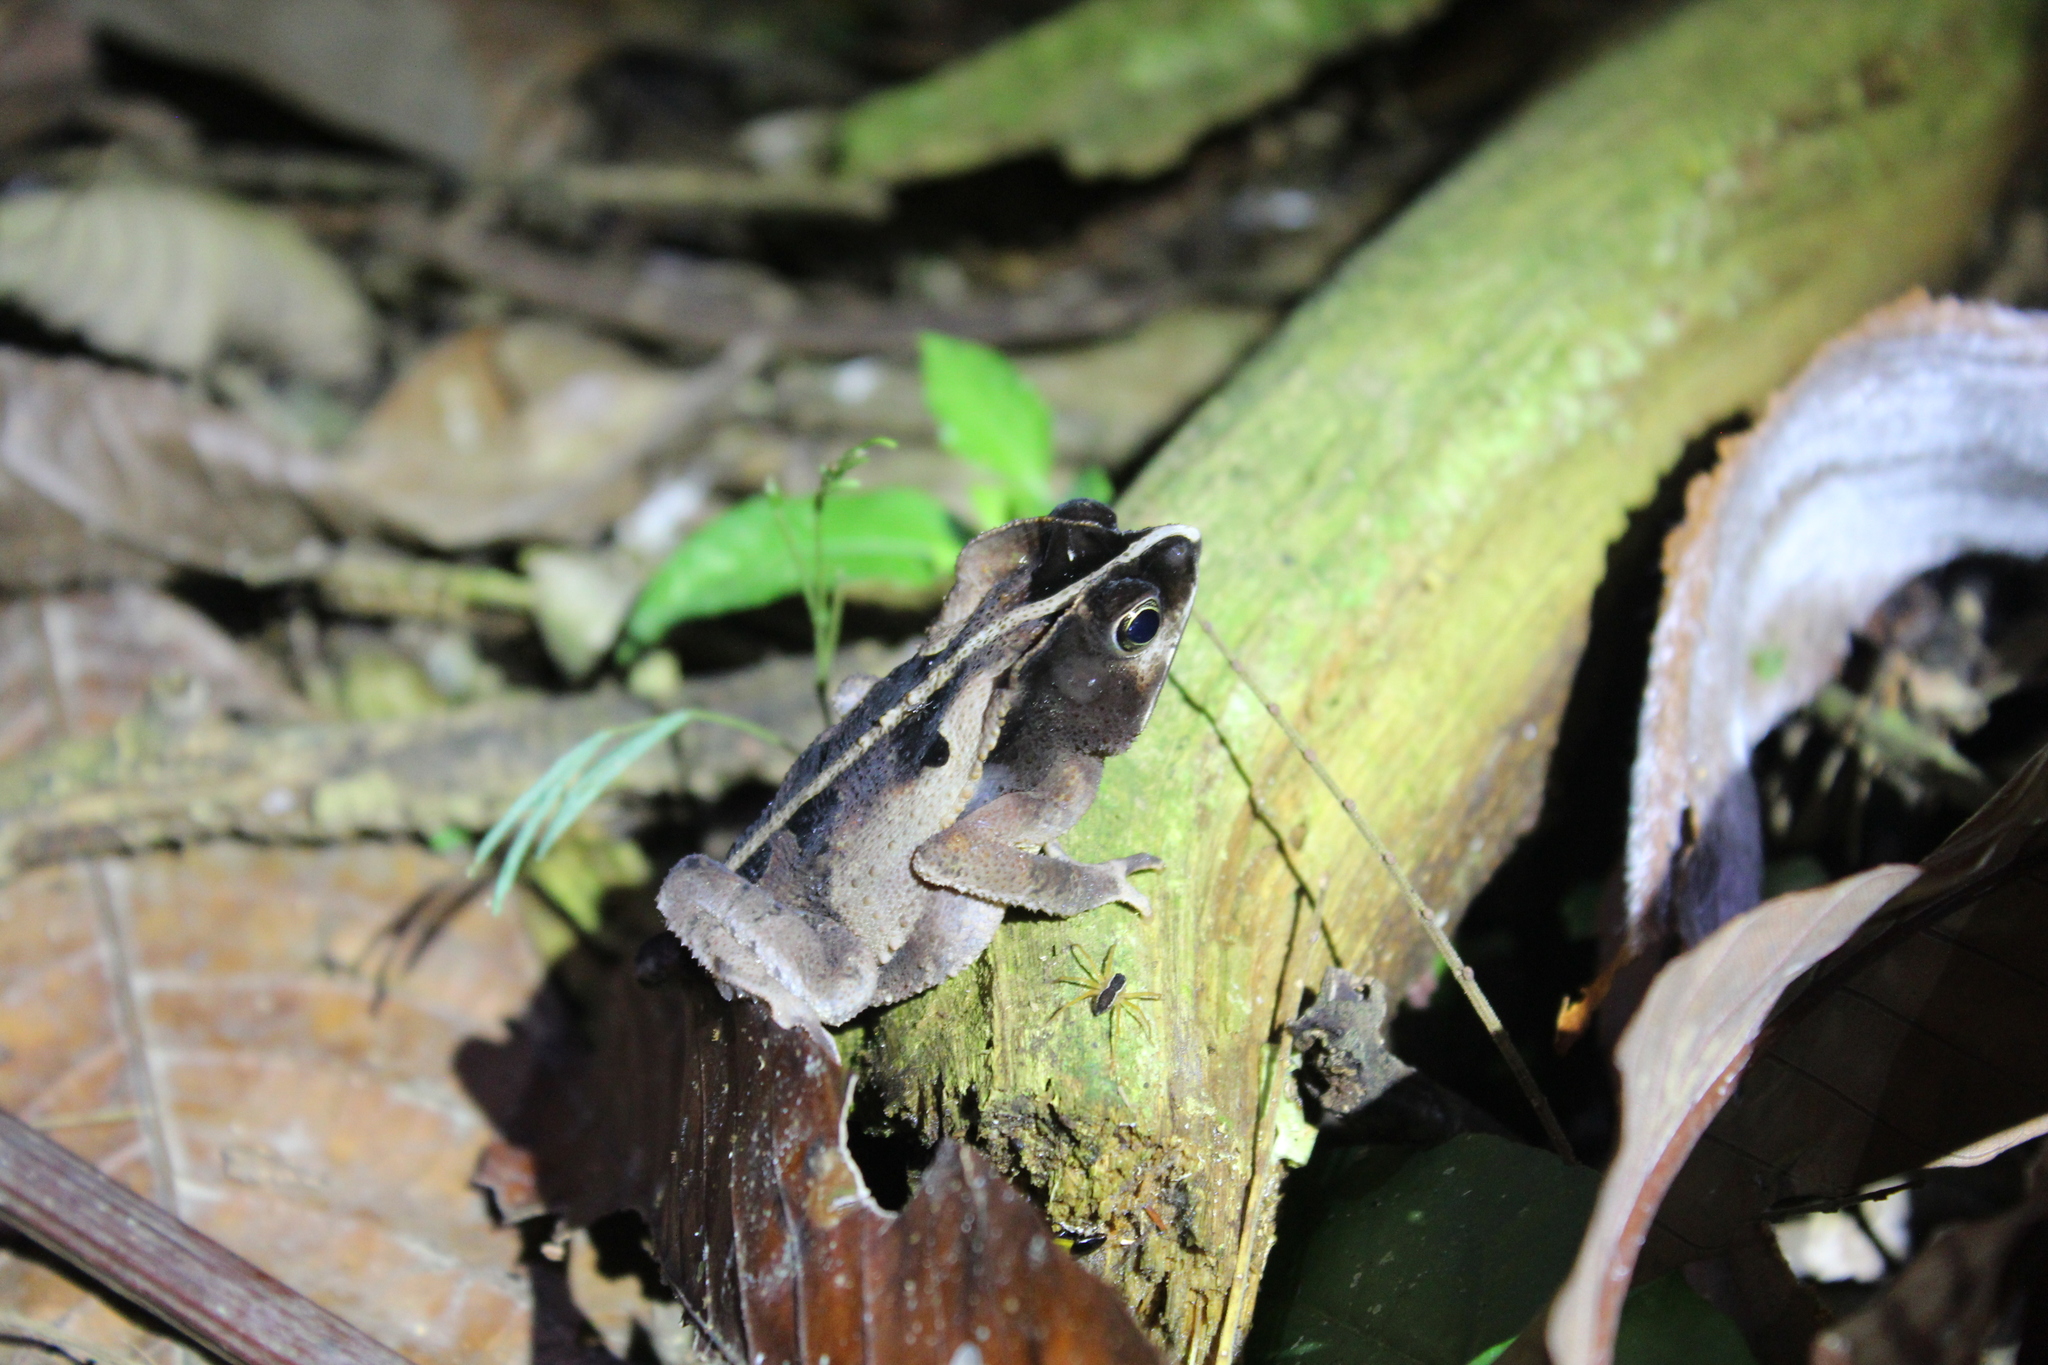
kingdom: Animalia
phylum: Chordata
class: Amphibia
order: Anura
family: Bufonidae
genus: Rhinella
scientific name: Rhinella margaritifera
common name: Mitred toad
